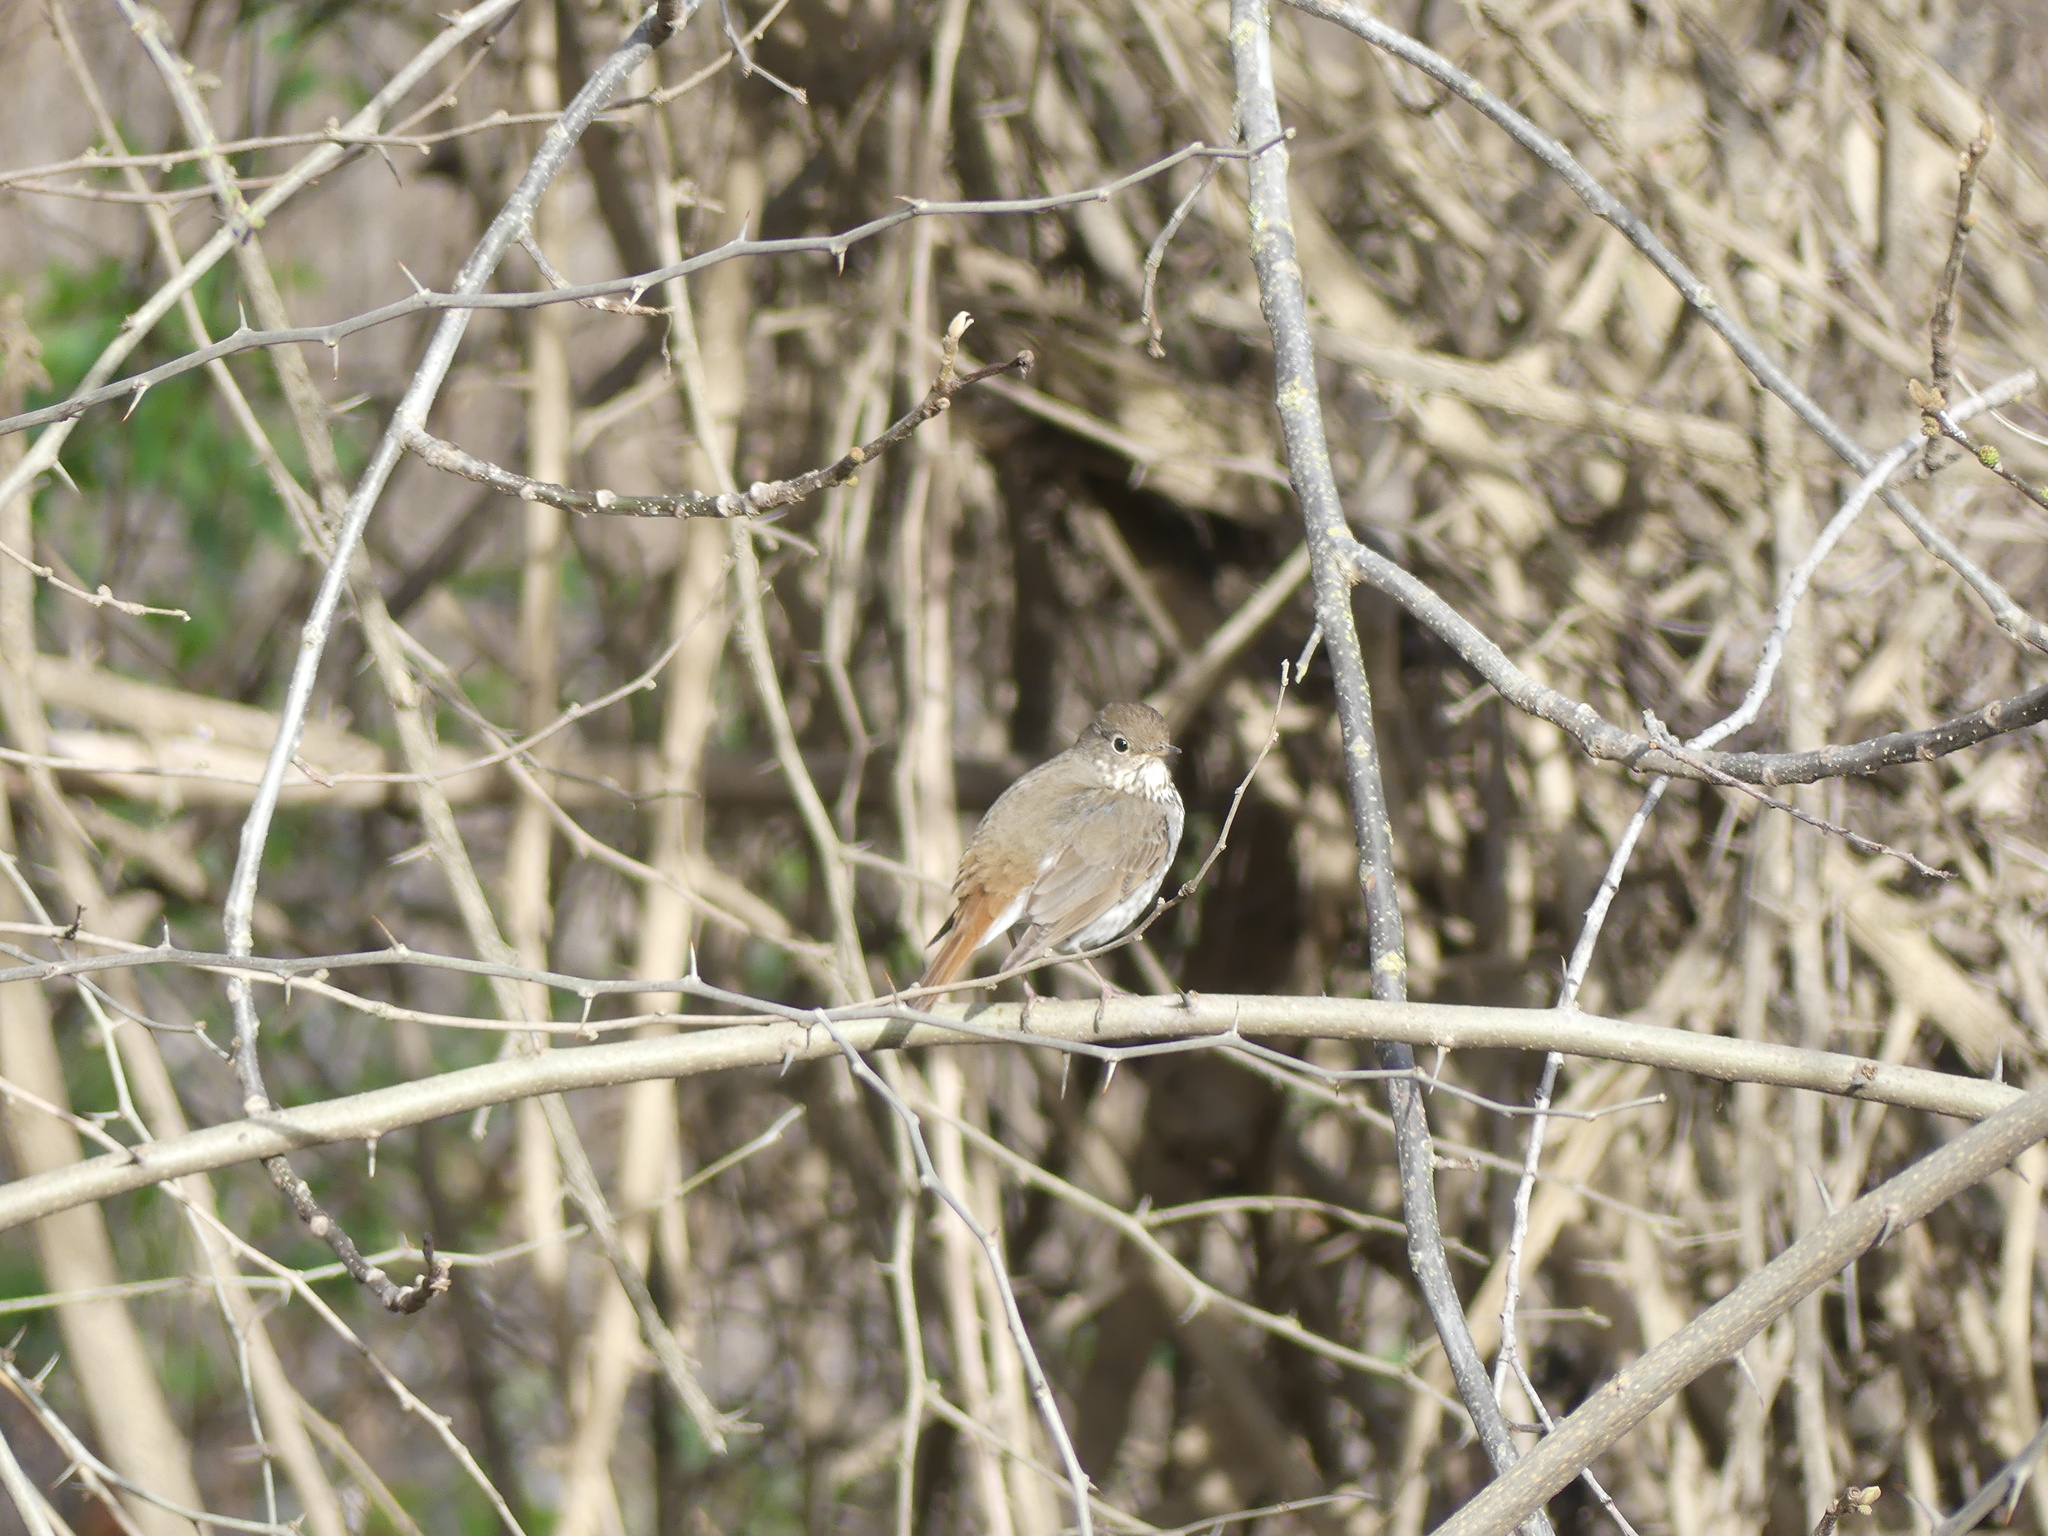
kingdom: Animalia
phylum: Chordata
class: Aves
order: Passeriformes
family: Turdidae
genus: Catharus
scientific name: Catharus guttatus
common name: Hermit thrush
